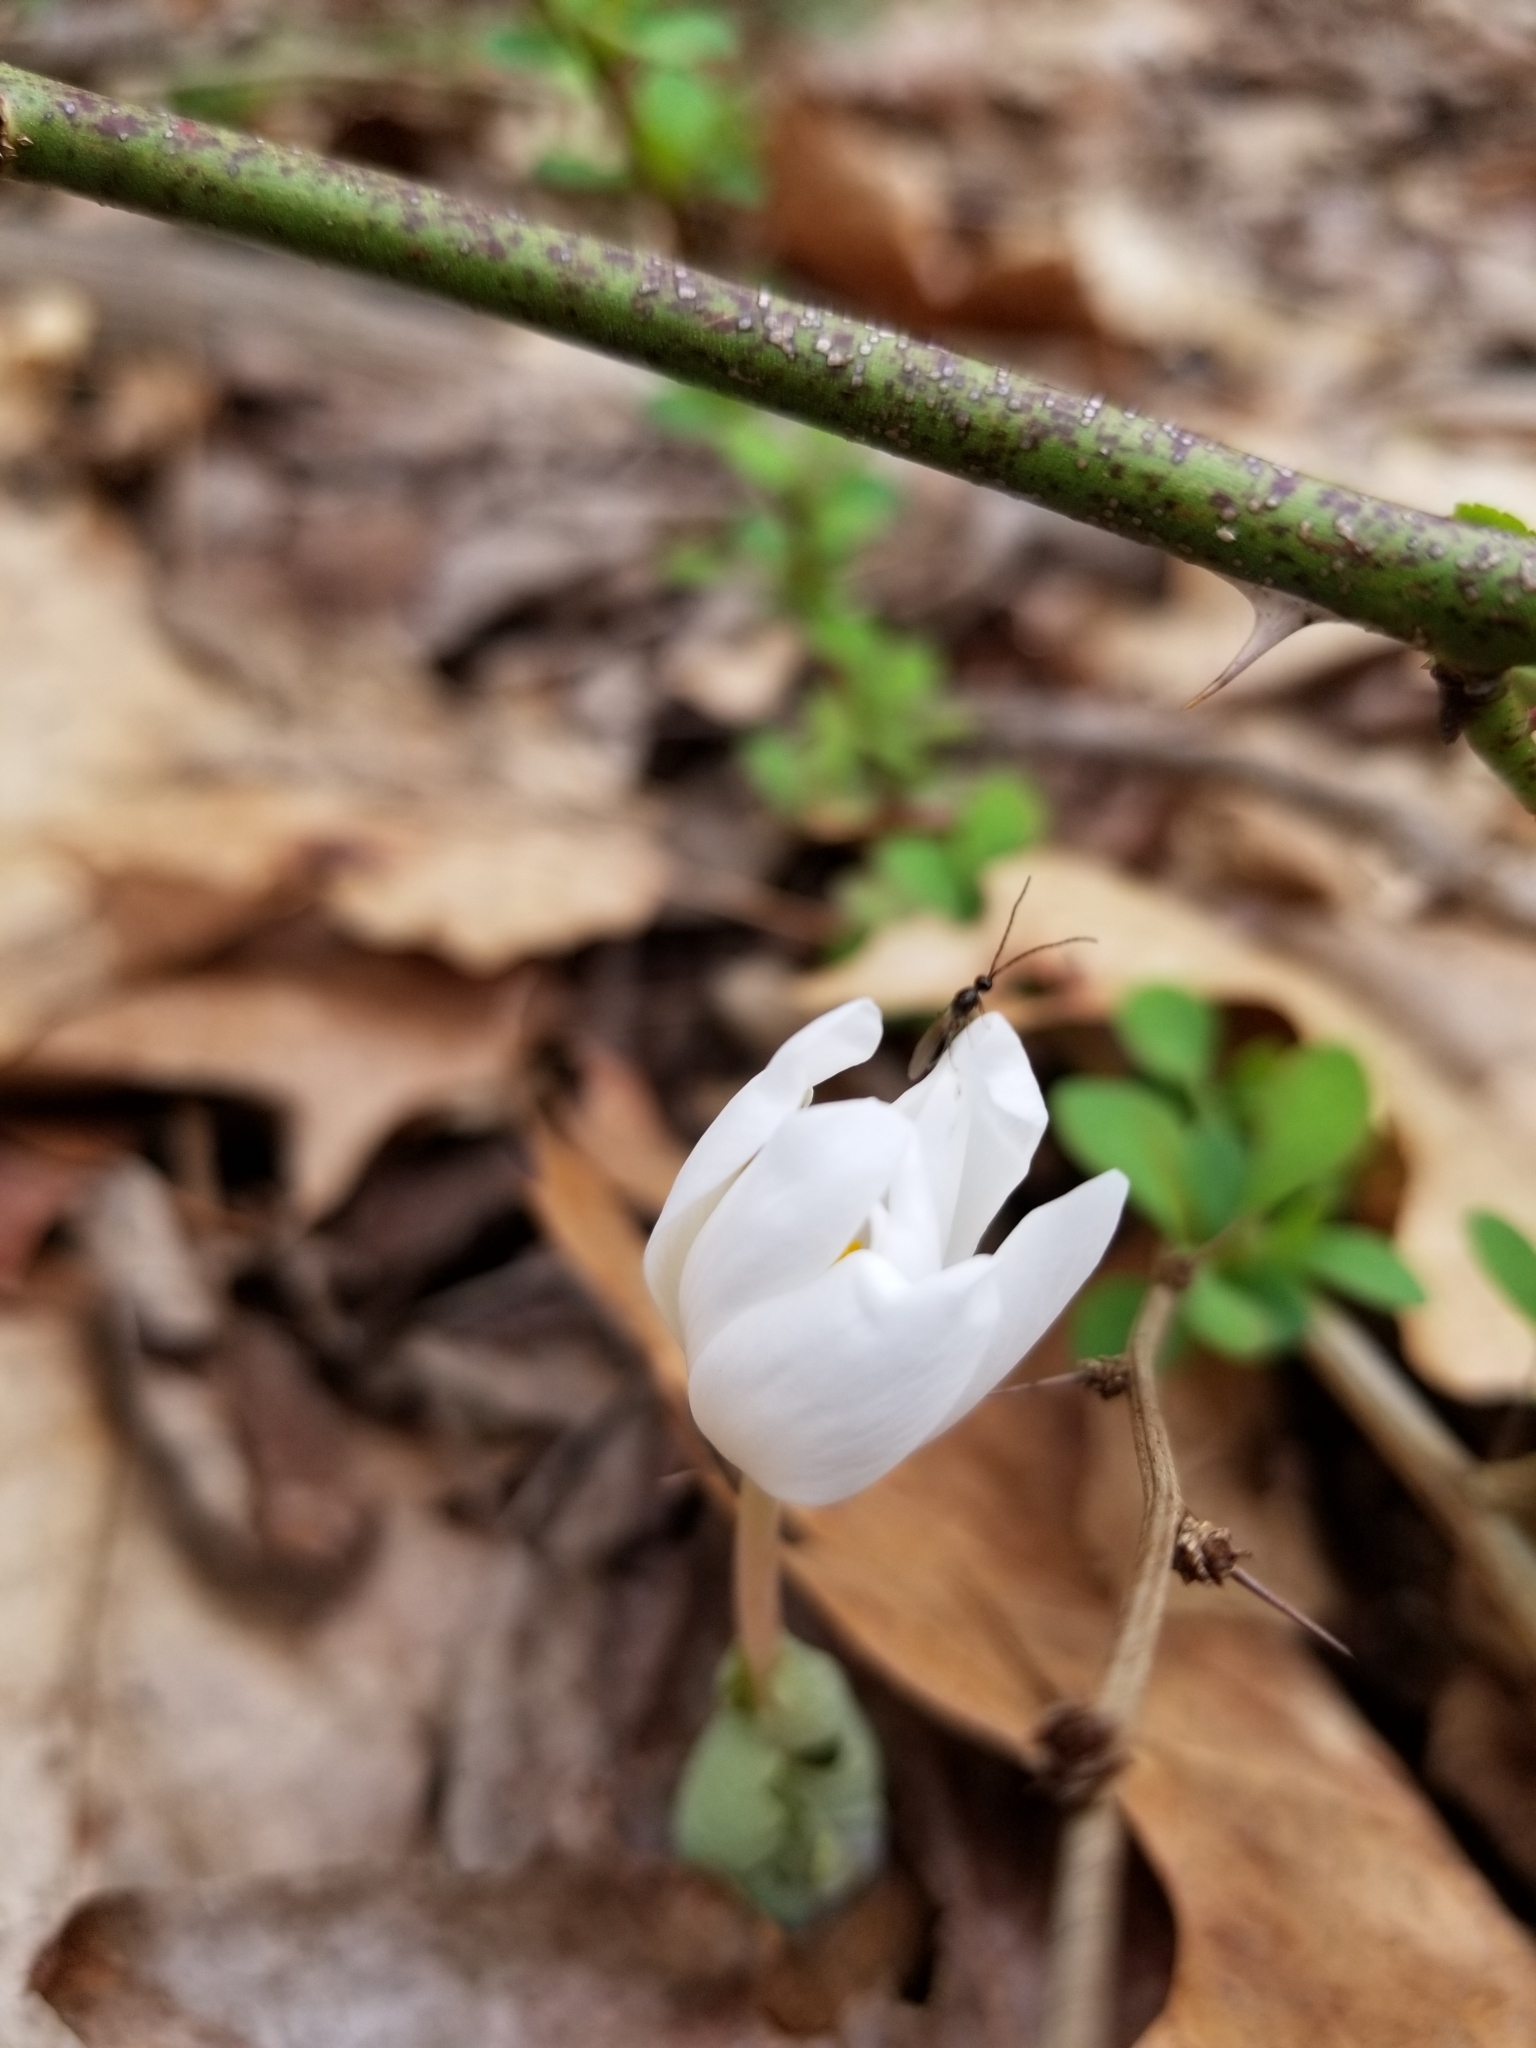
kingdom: Plantae
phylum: Tracheophyta
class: Magnoliopsida
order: Ranunculales
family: Papaveraceae
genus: Sanguinaria
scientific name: Sanguinaria canadensis
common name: Bloodroot
